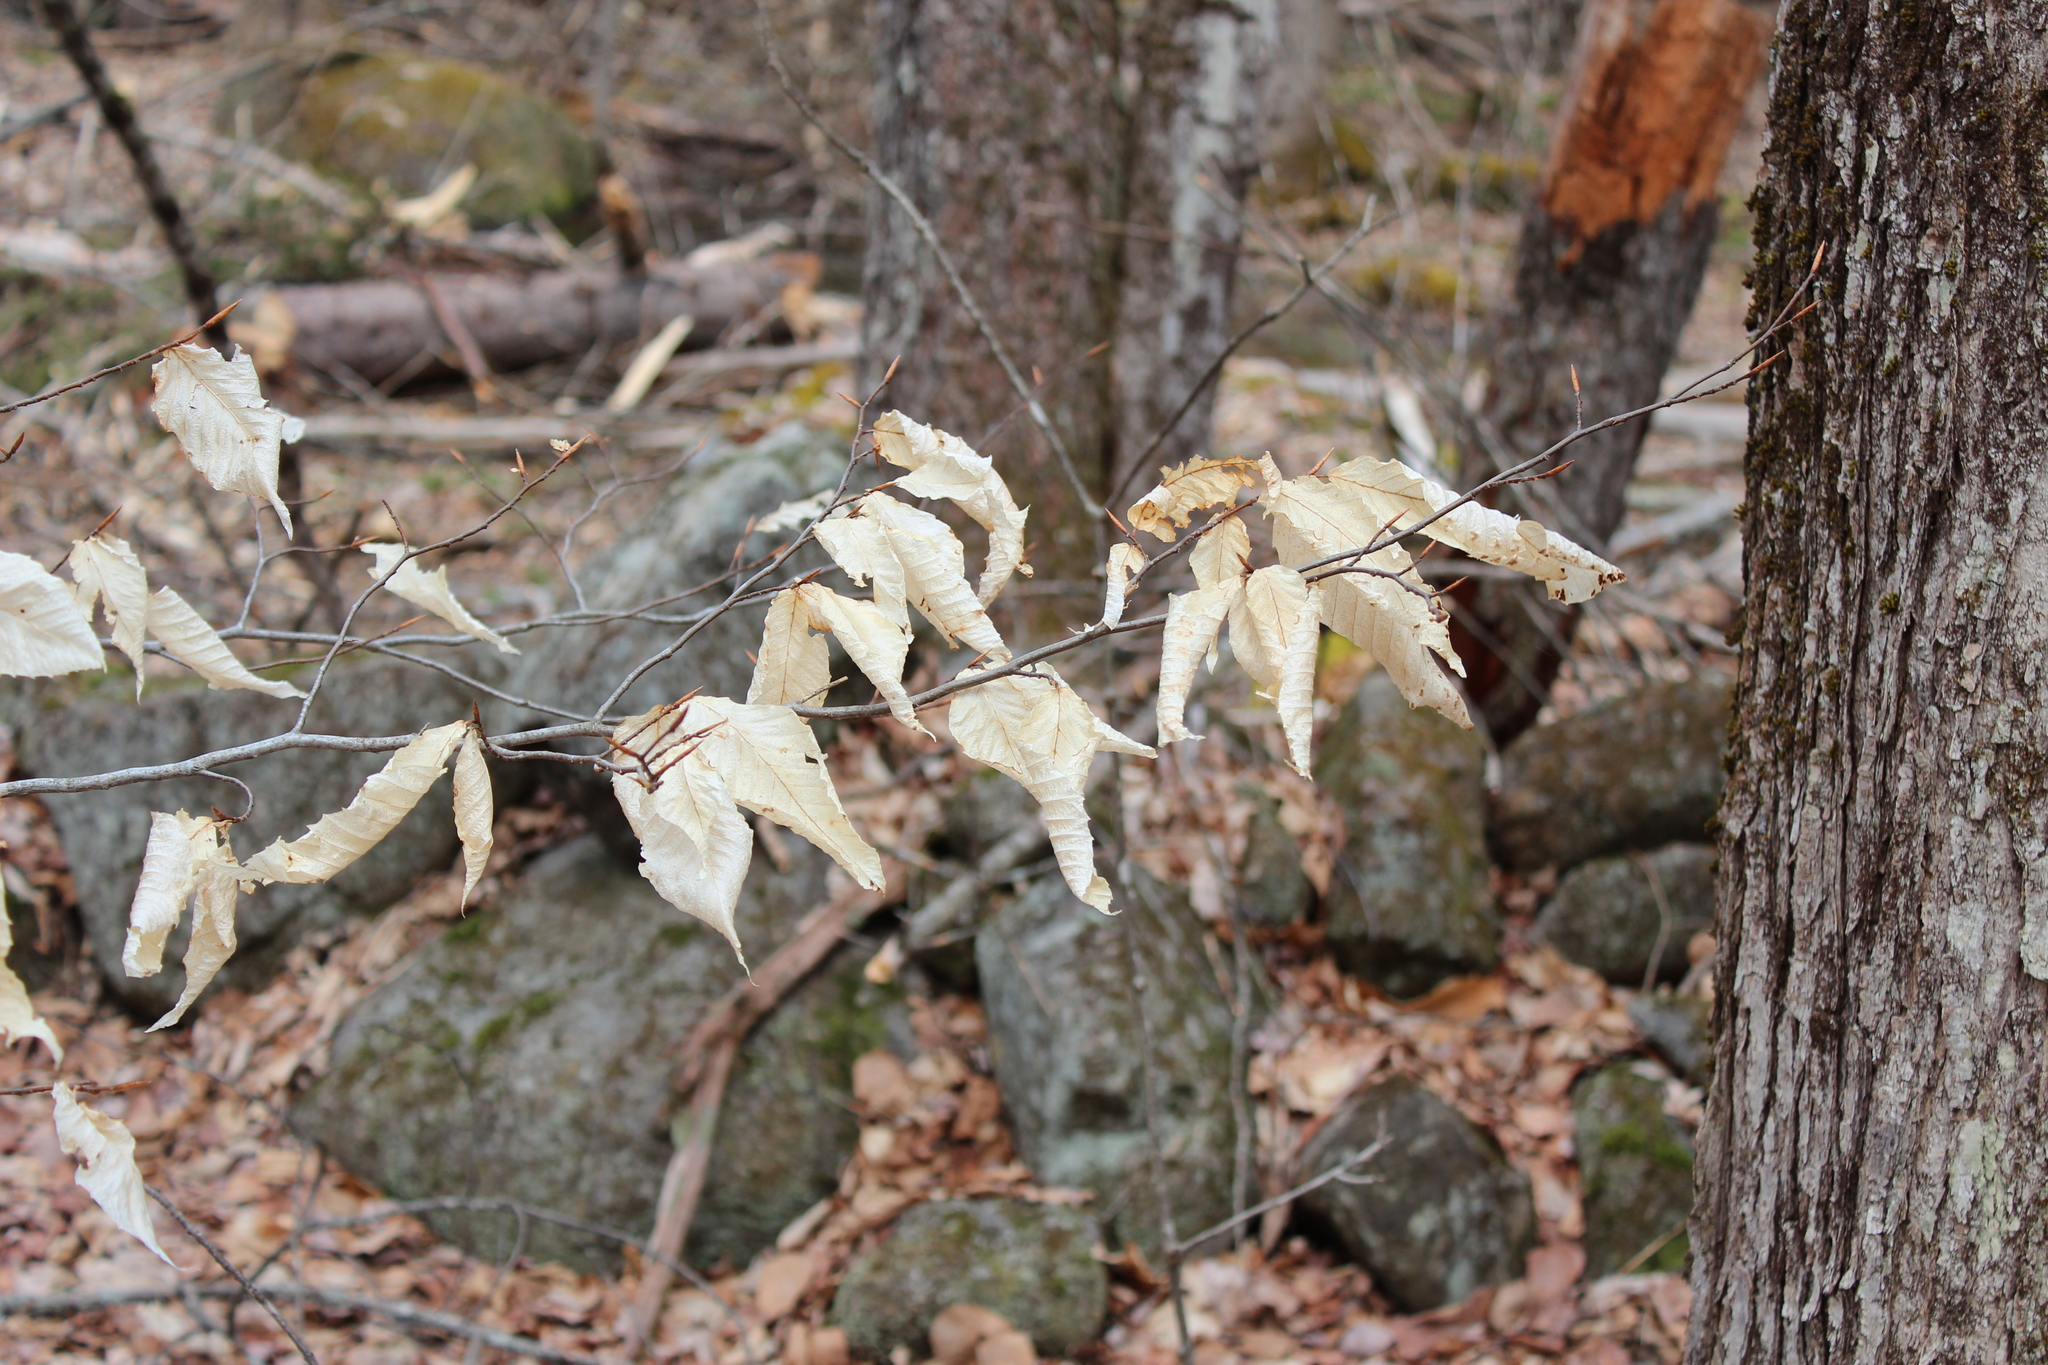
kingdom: Plantae
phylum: Tracheophyta
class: Magnoliopsida
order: Fagales
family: Fagaceae
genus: Fagus
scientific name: Fagus grandifolia
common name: American beech
